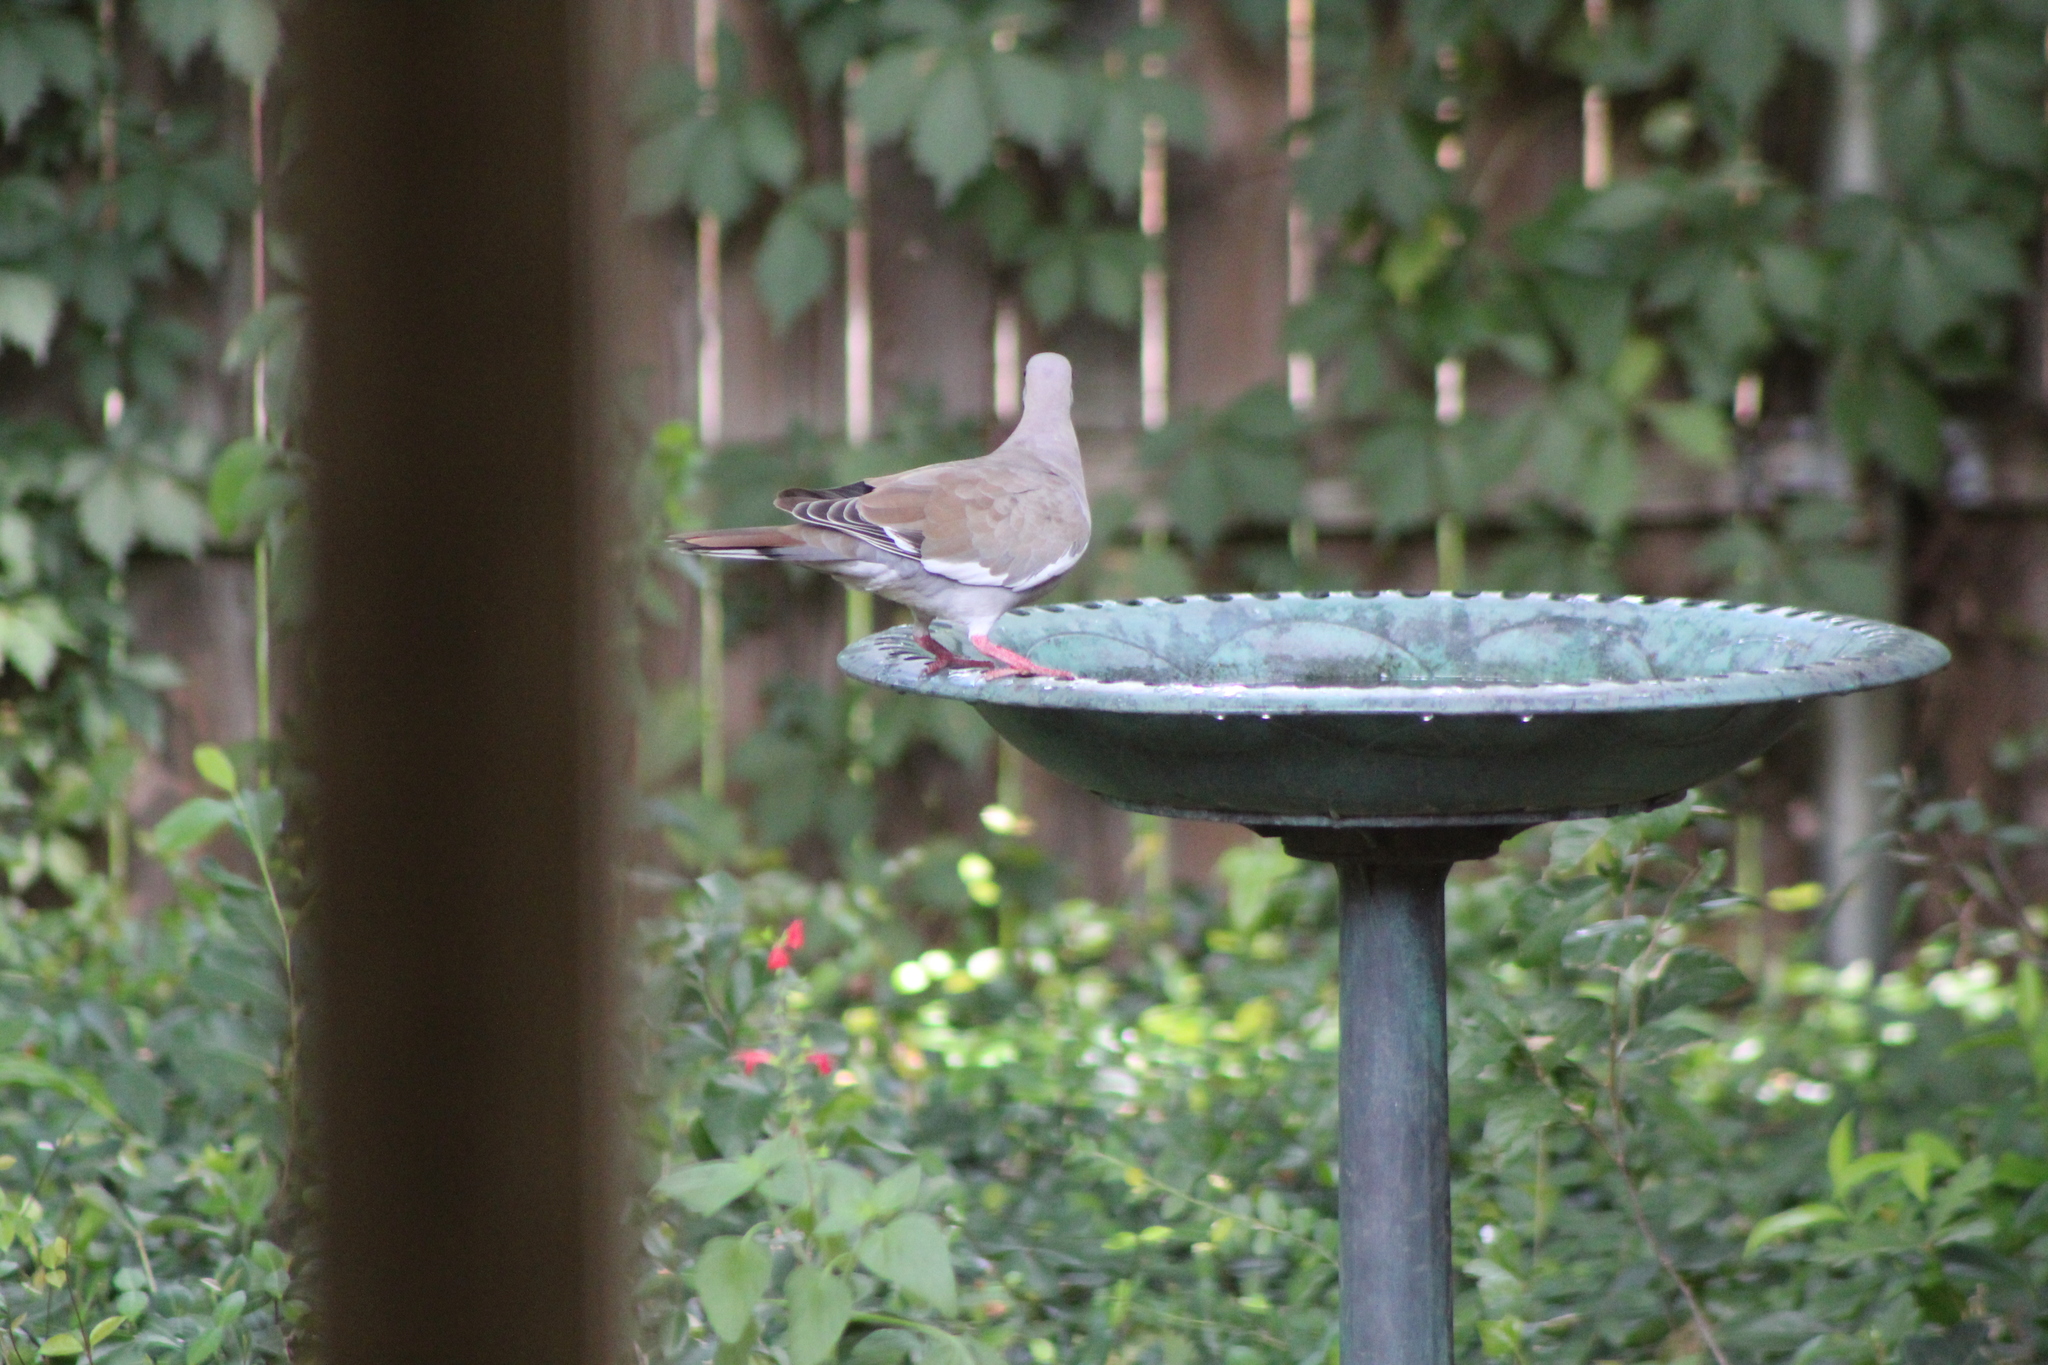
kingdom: Animalia
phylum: Chordata
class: Aves
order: Columbiformes
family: Columbidae
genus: Zenaida
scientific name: Zenaida asiatica
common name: White-winged dove
